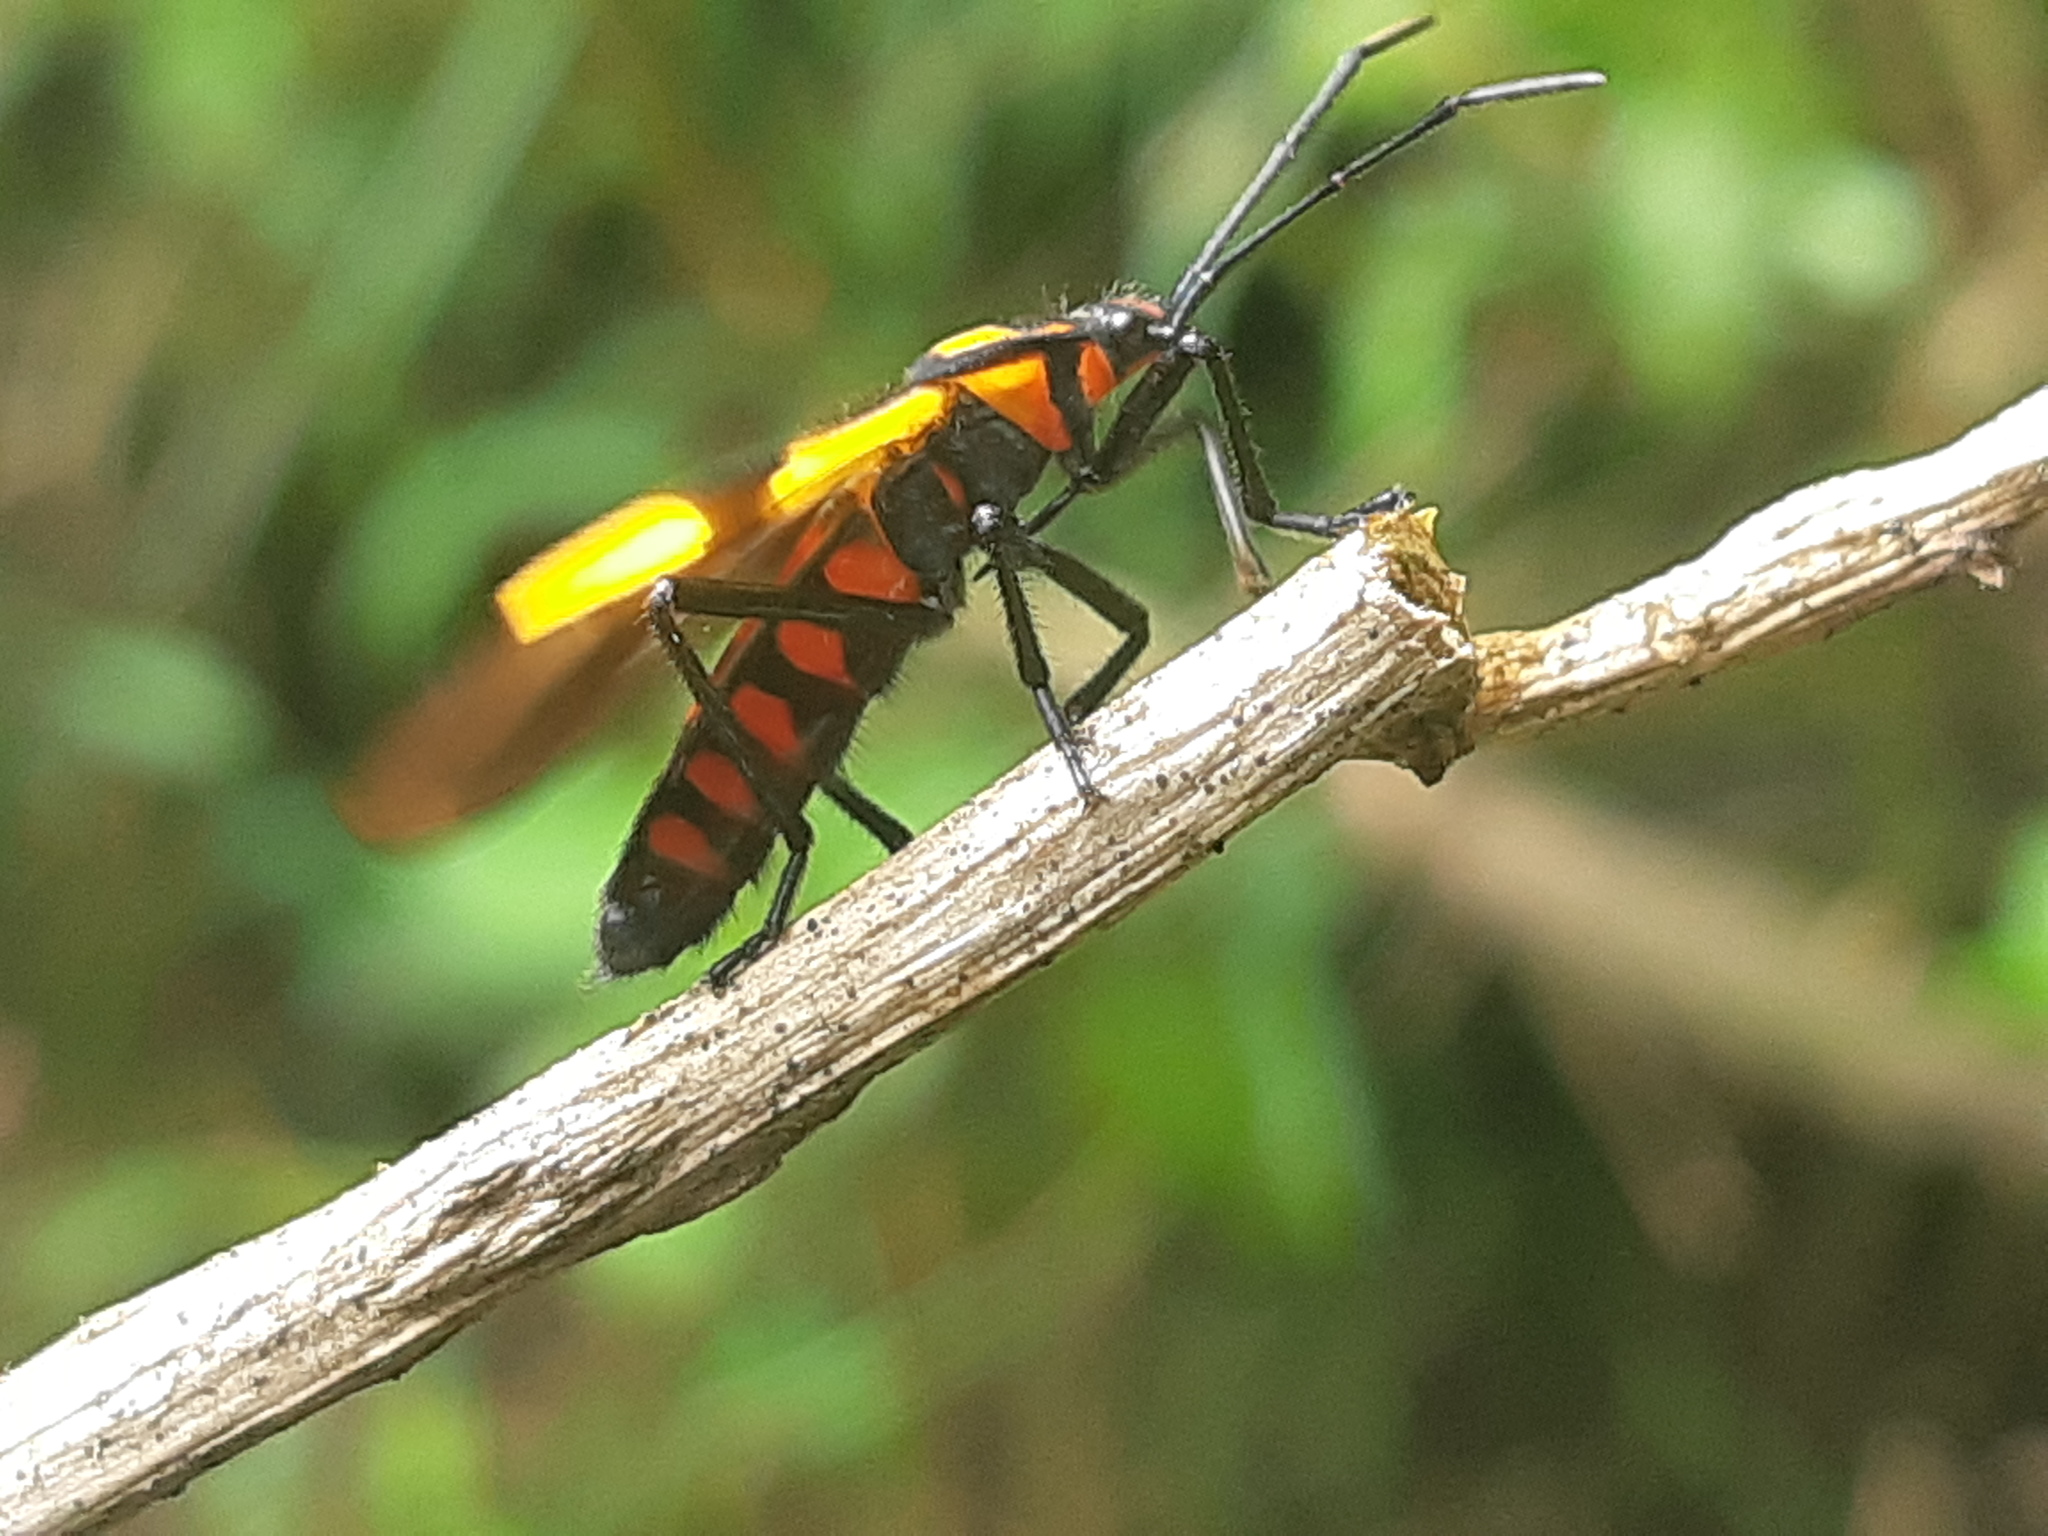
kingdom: Animalia
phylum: Arthropoda
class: Insecta
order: Hemiptera
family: Lygaeidae
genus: Oncopeltus
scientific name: Oncopeltus varicolor
